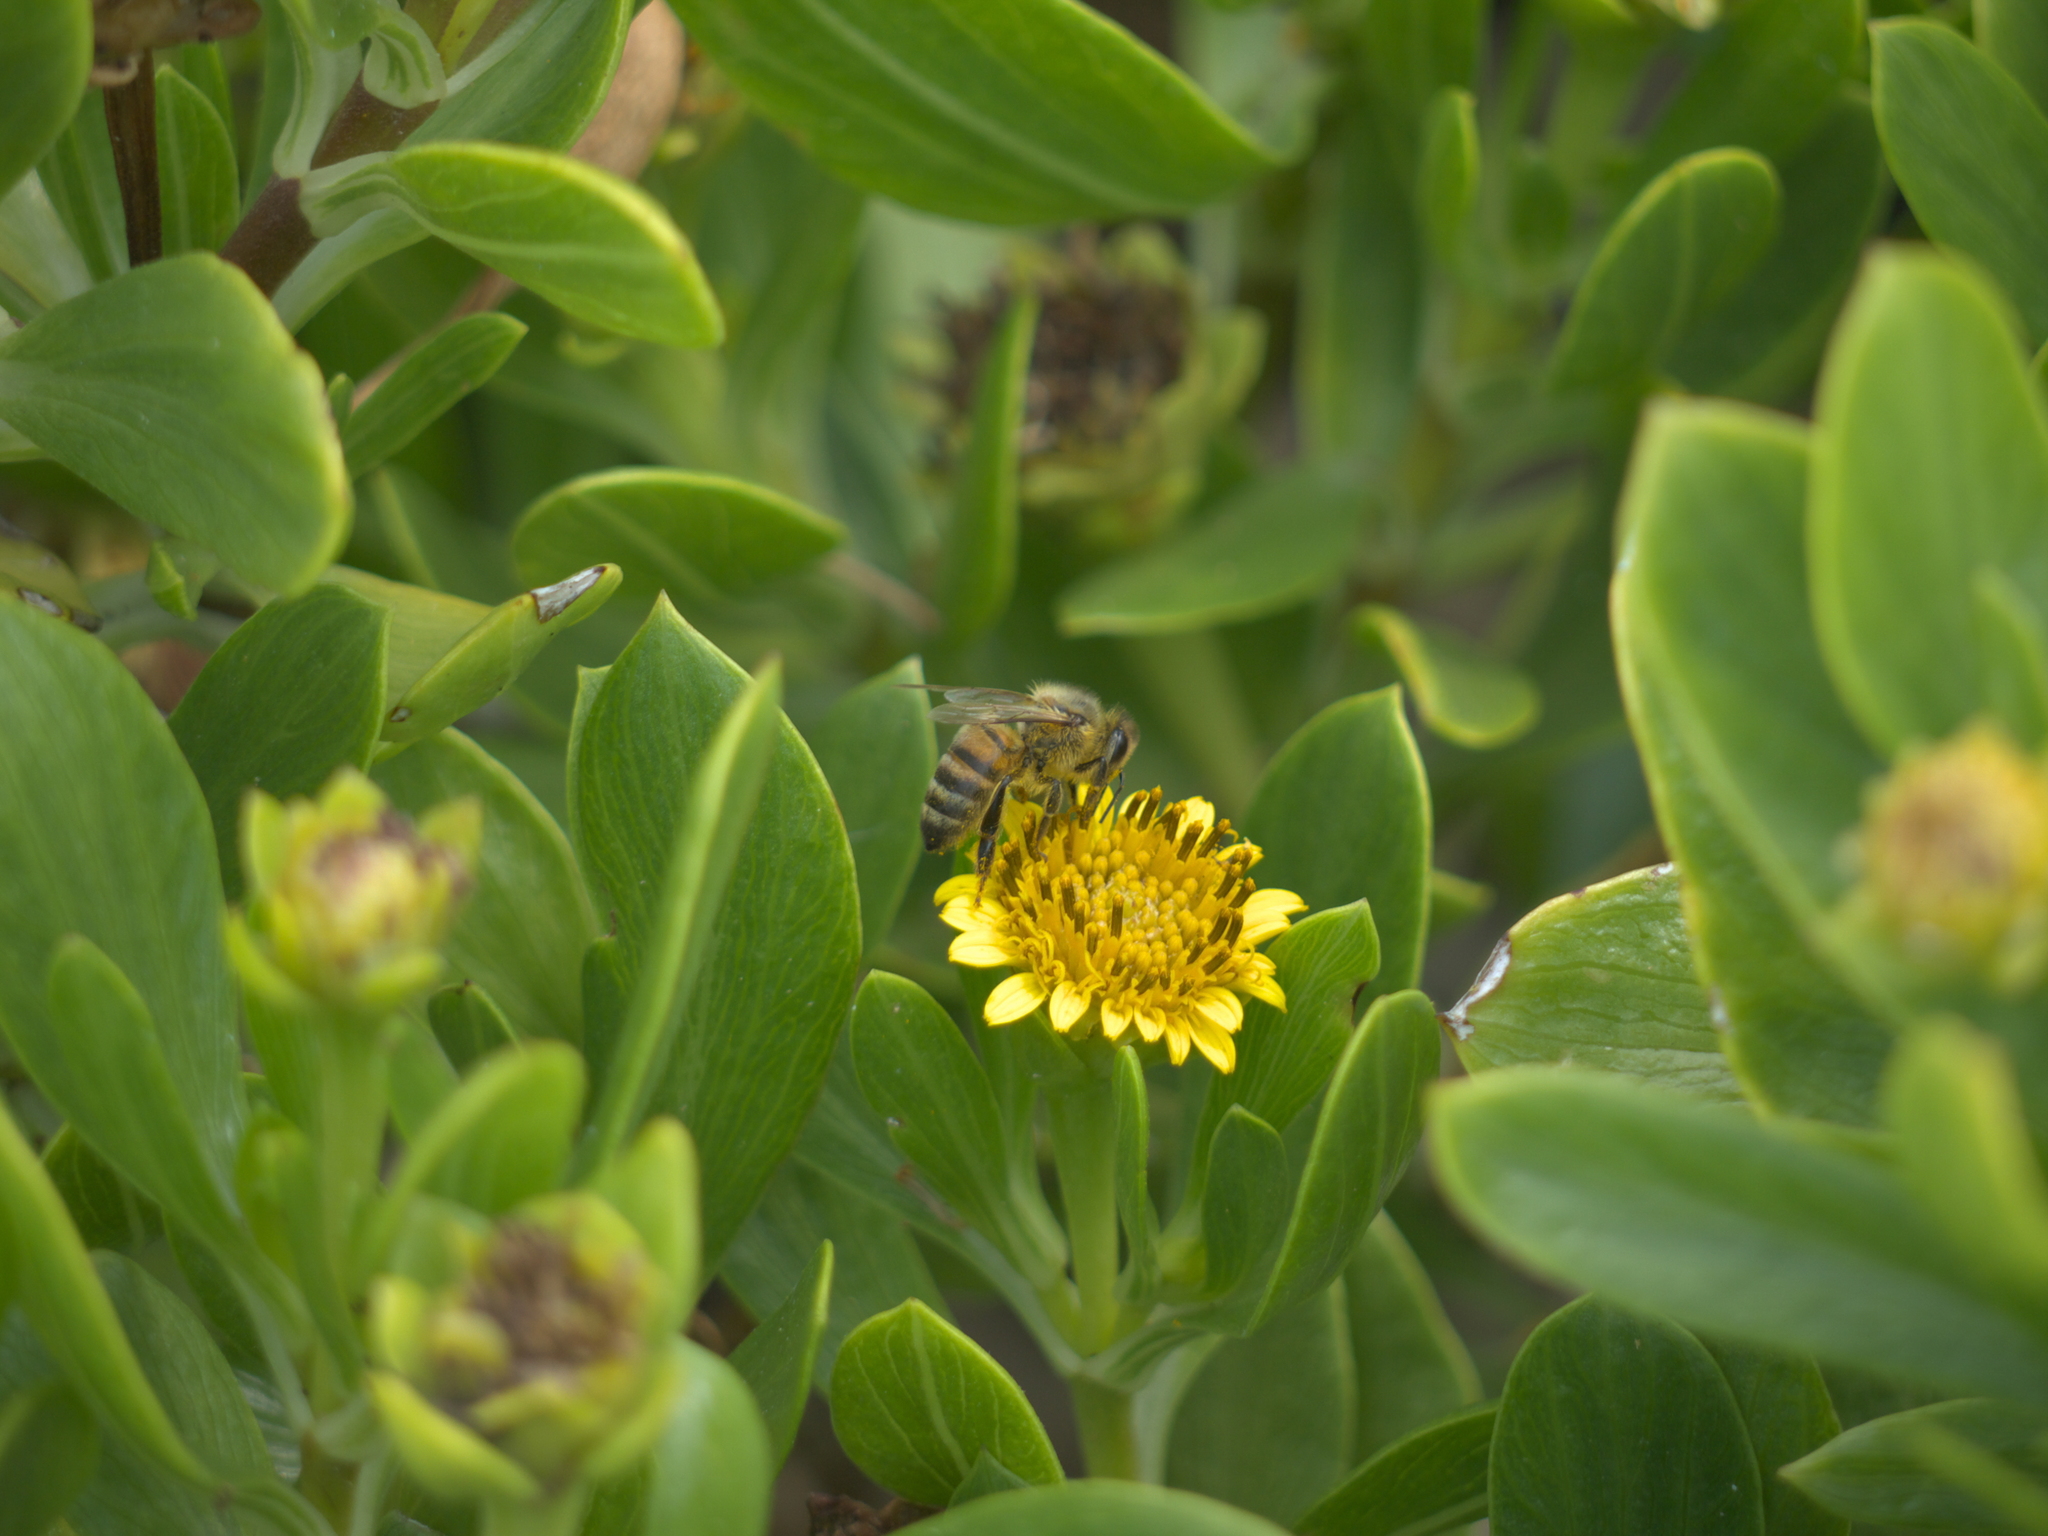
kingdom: Plantae
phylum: Tracheophyta
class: Magnoliopsida
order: Asterales
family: Asteraceae
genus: Borrichia
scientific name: Borrichia frutescens
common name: Sea oxeye
